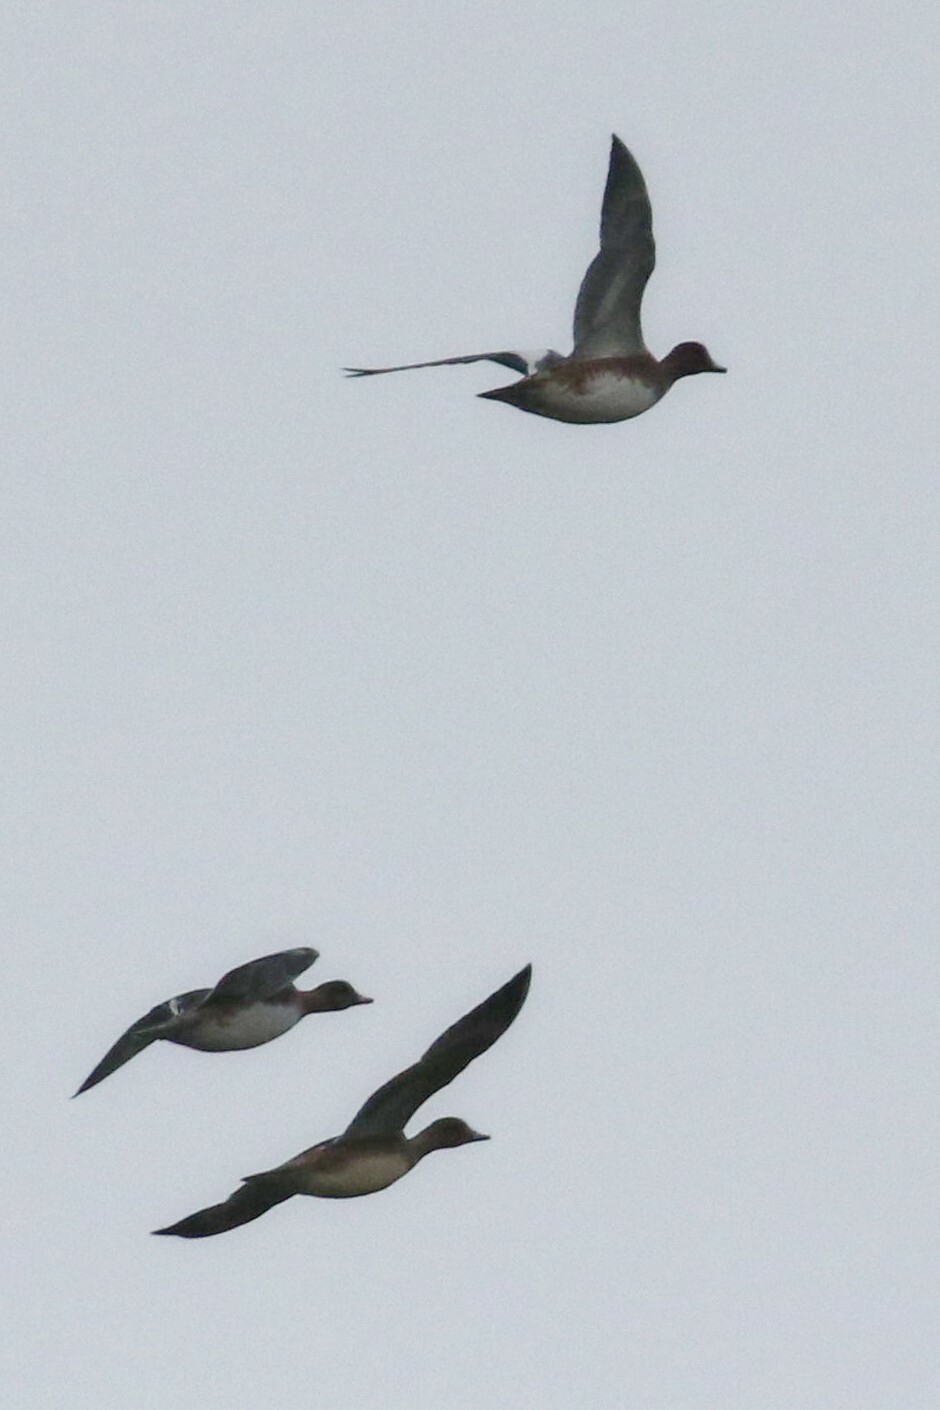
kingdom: Animalia
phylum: Chordata
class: Aves
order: Anseriformes
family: Anatidae
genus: Mareca
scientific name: Mareca penelope
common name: Eurasian wigeon
